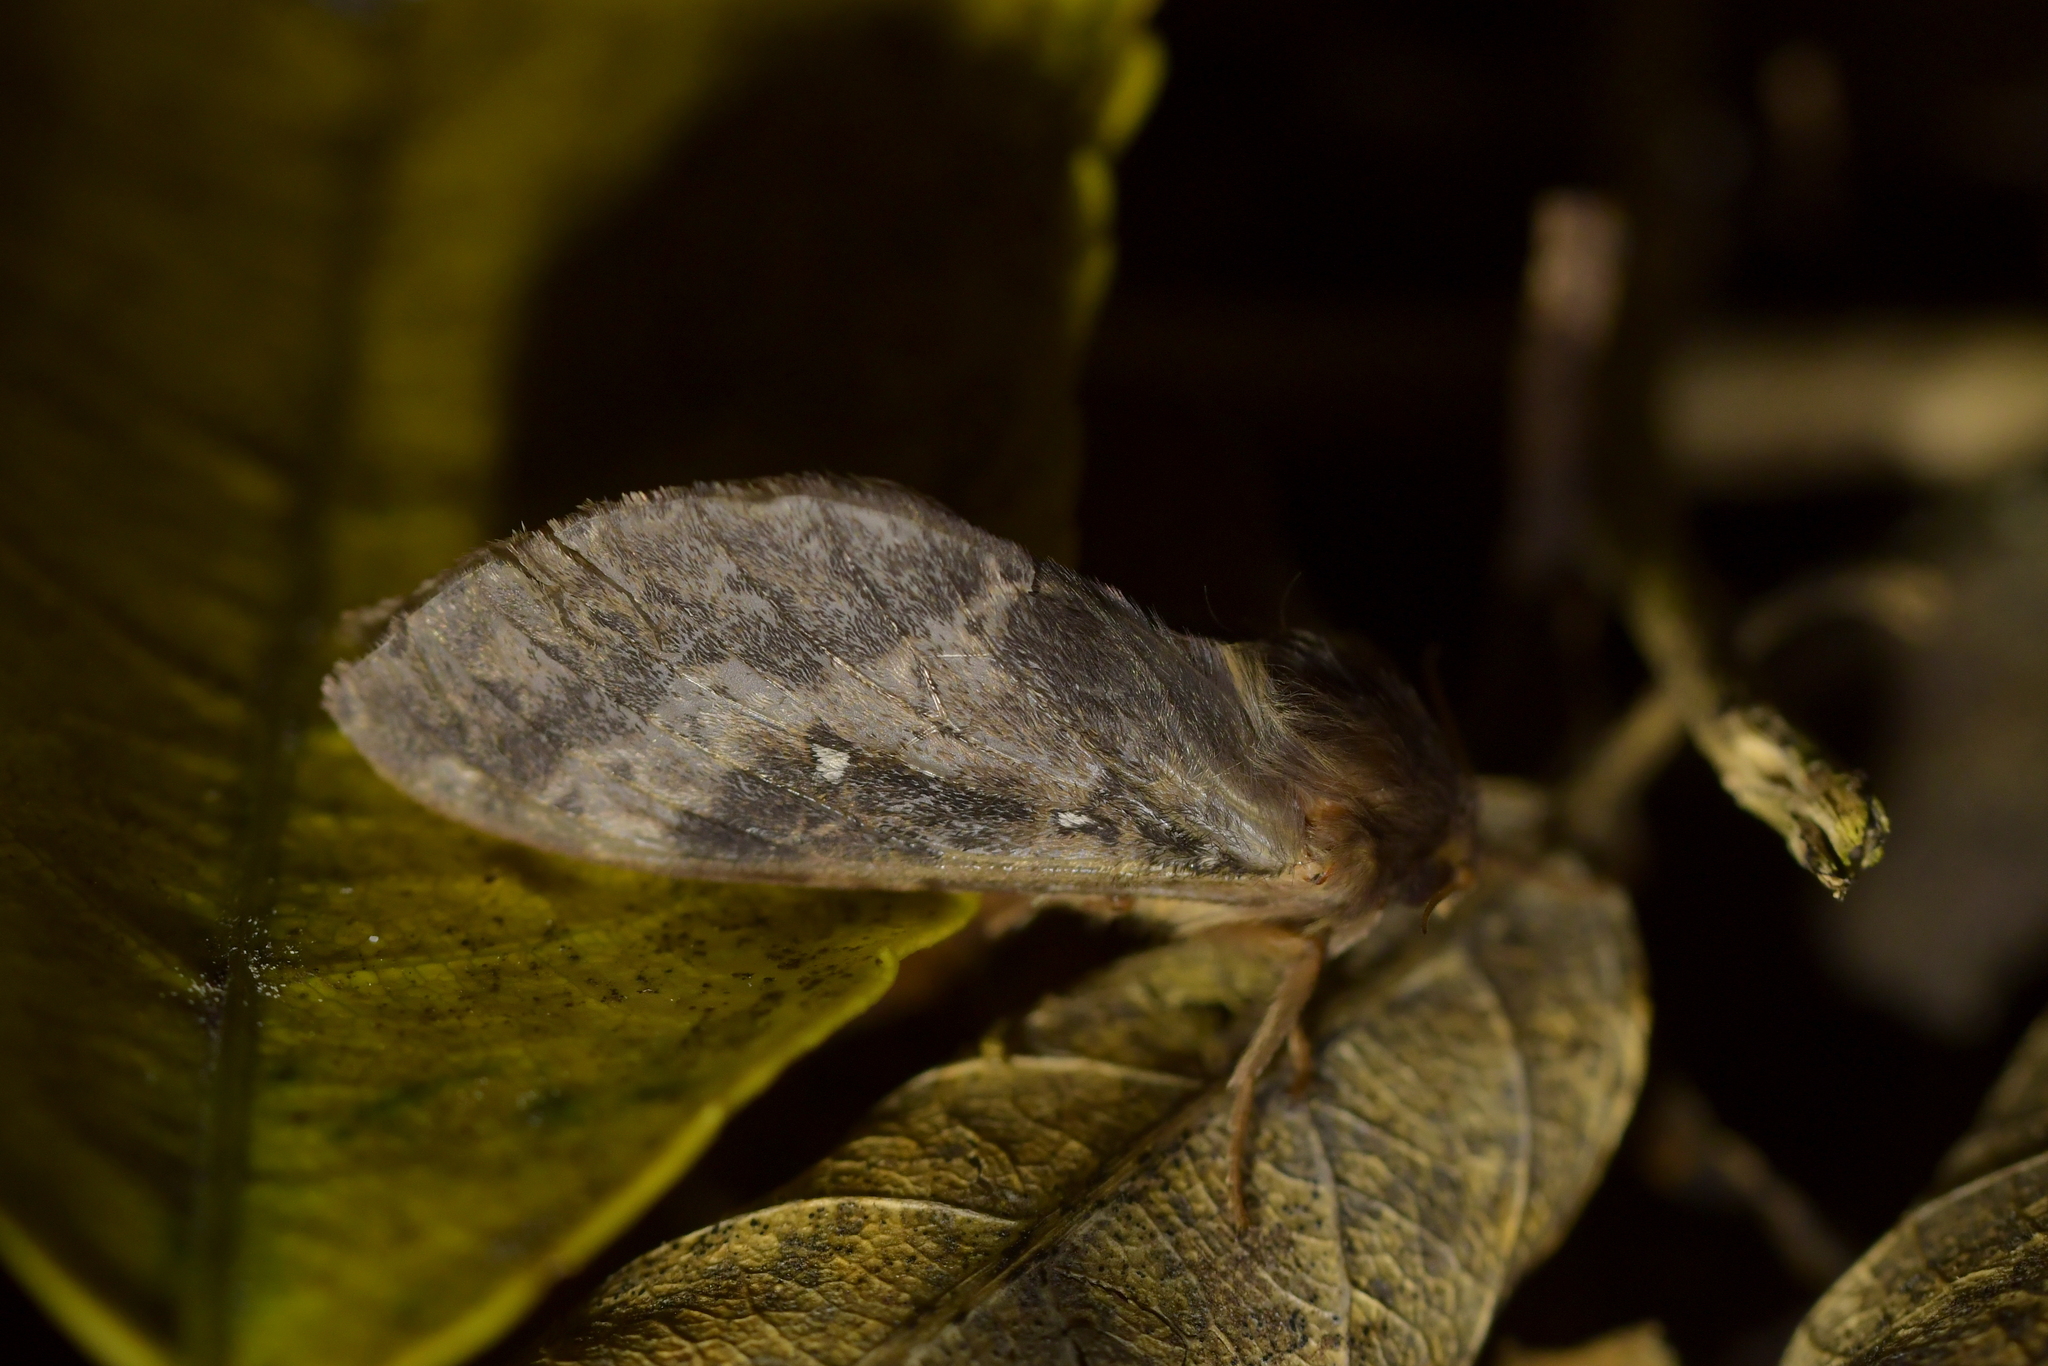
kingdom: Animalia
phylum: Arthropoda
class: Insecta
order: Lepidoptera
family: Hepialidae
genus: Wiseana
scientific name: Wiseana cervinata
